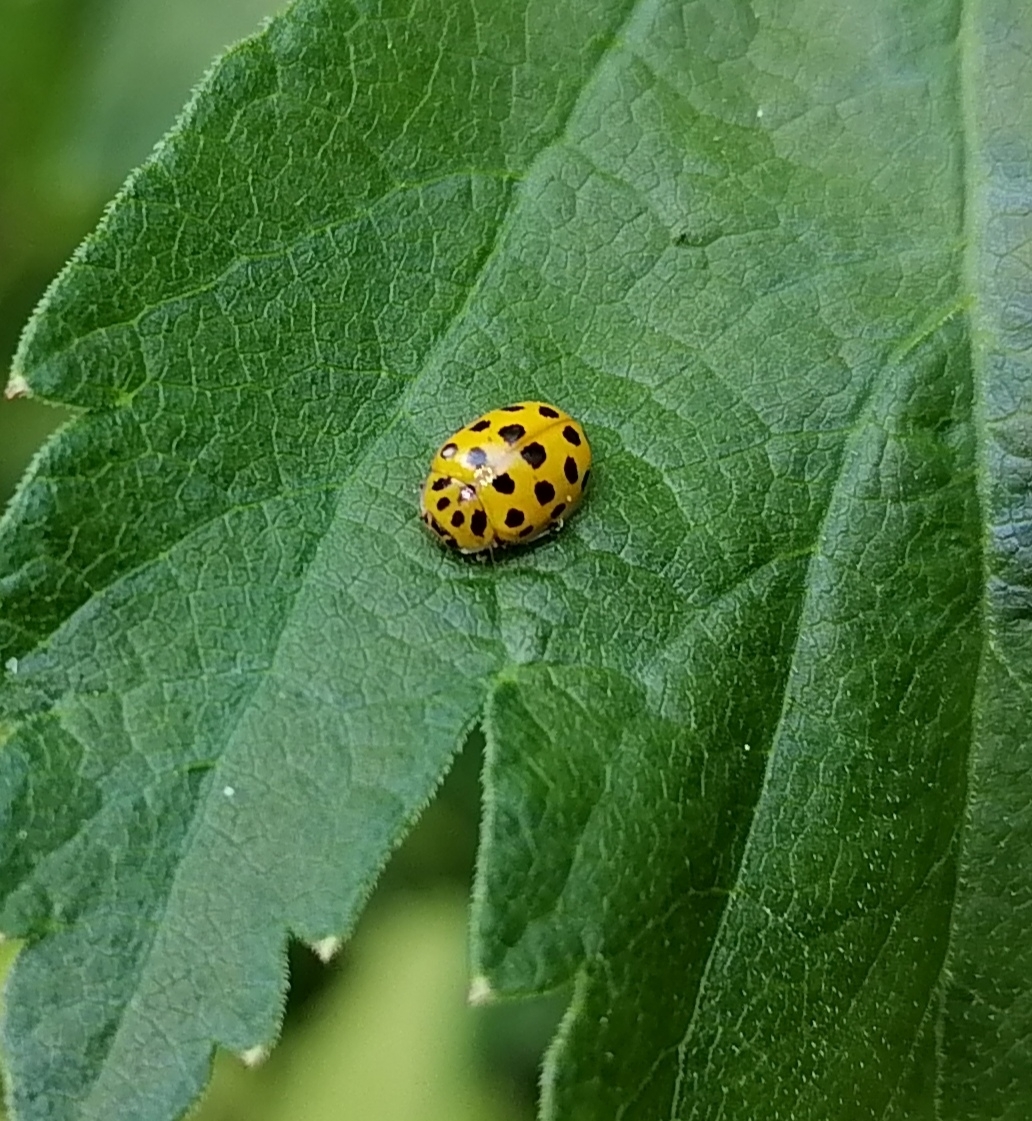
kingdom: Animalia
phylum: Arthropoda
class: Insecta
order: Coleoptera
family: Coccinellidae
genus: Psyllobora
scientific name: Psyllobora vigintiduopunctata
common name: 22-spot ladybird
